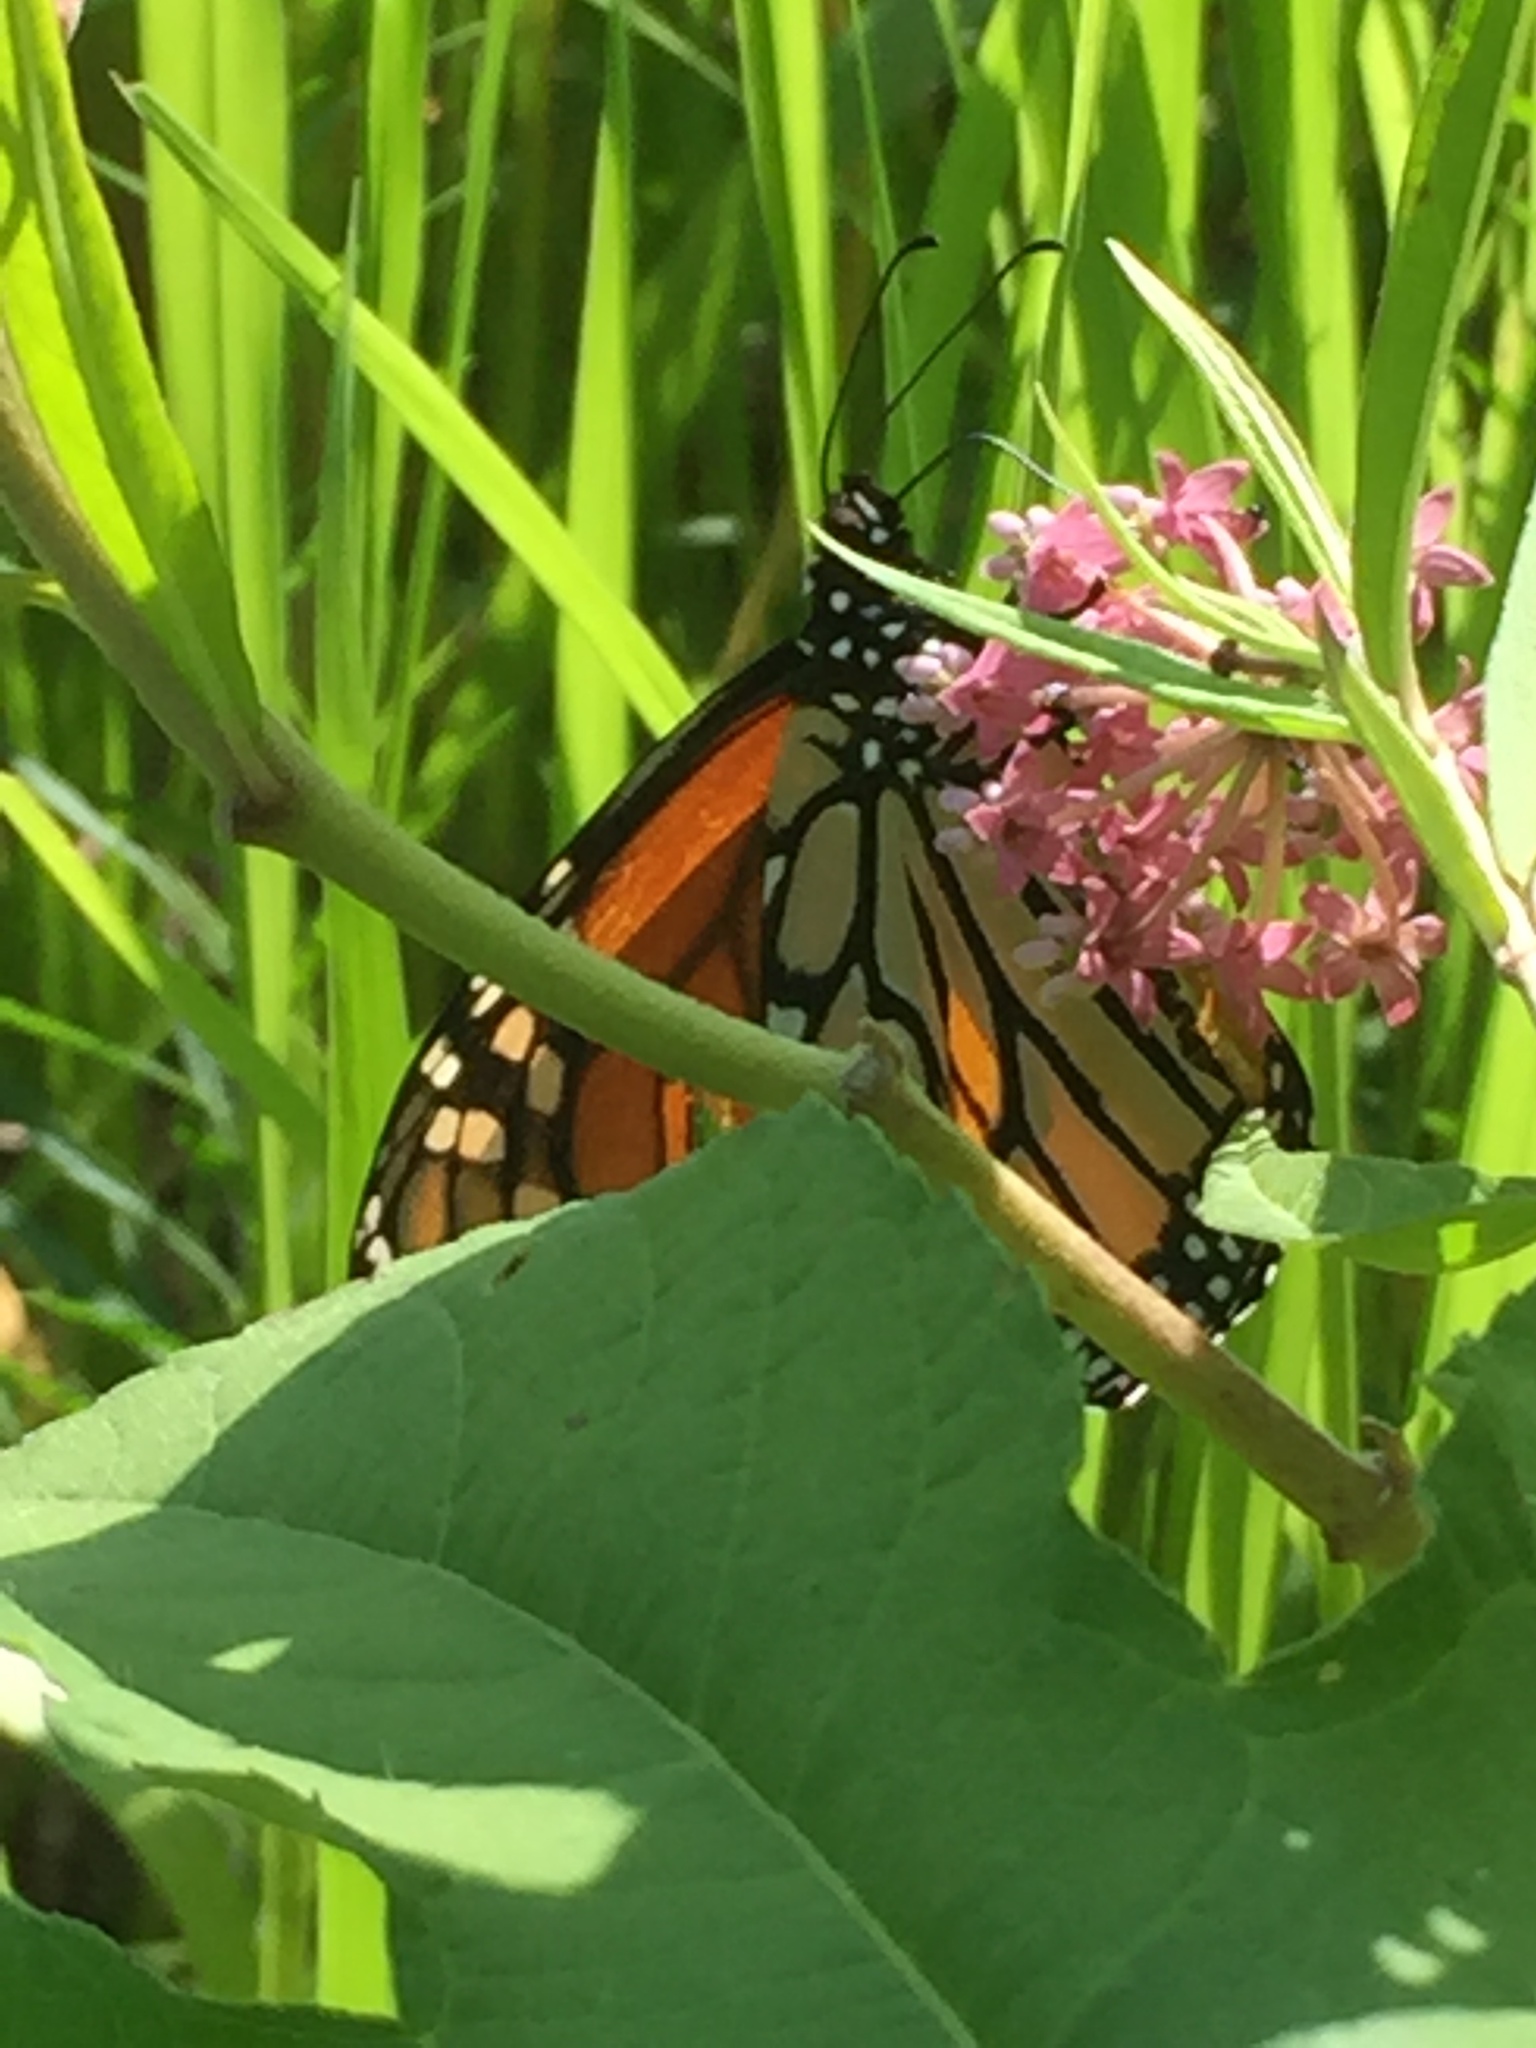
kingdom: Animalia
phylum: Arthropoda
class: Insecta
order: Lepidoptera
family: Nymphalidae
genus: Danaus
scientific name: Danaus plexippus
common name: Monarch
